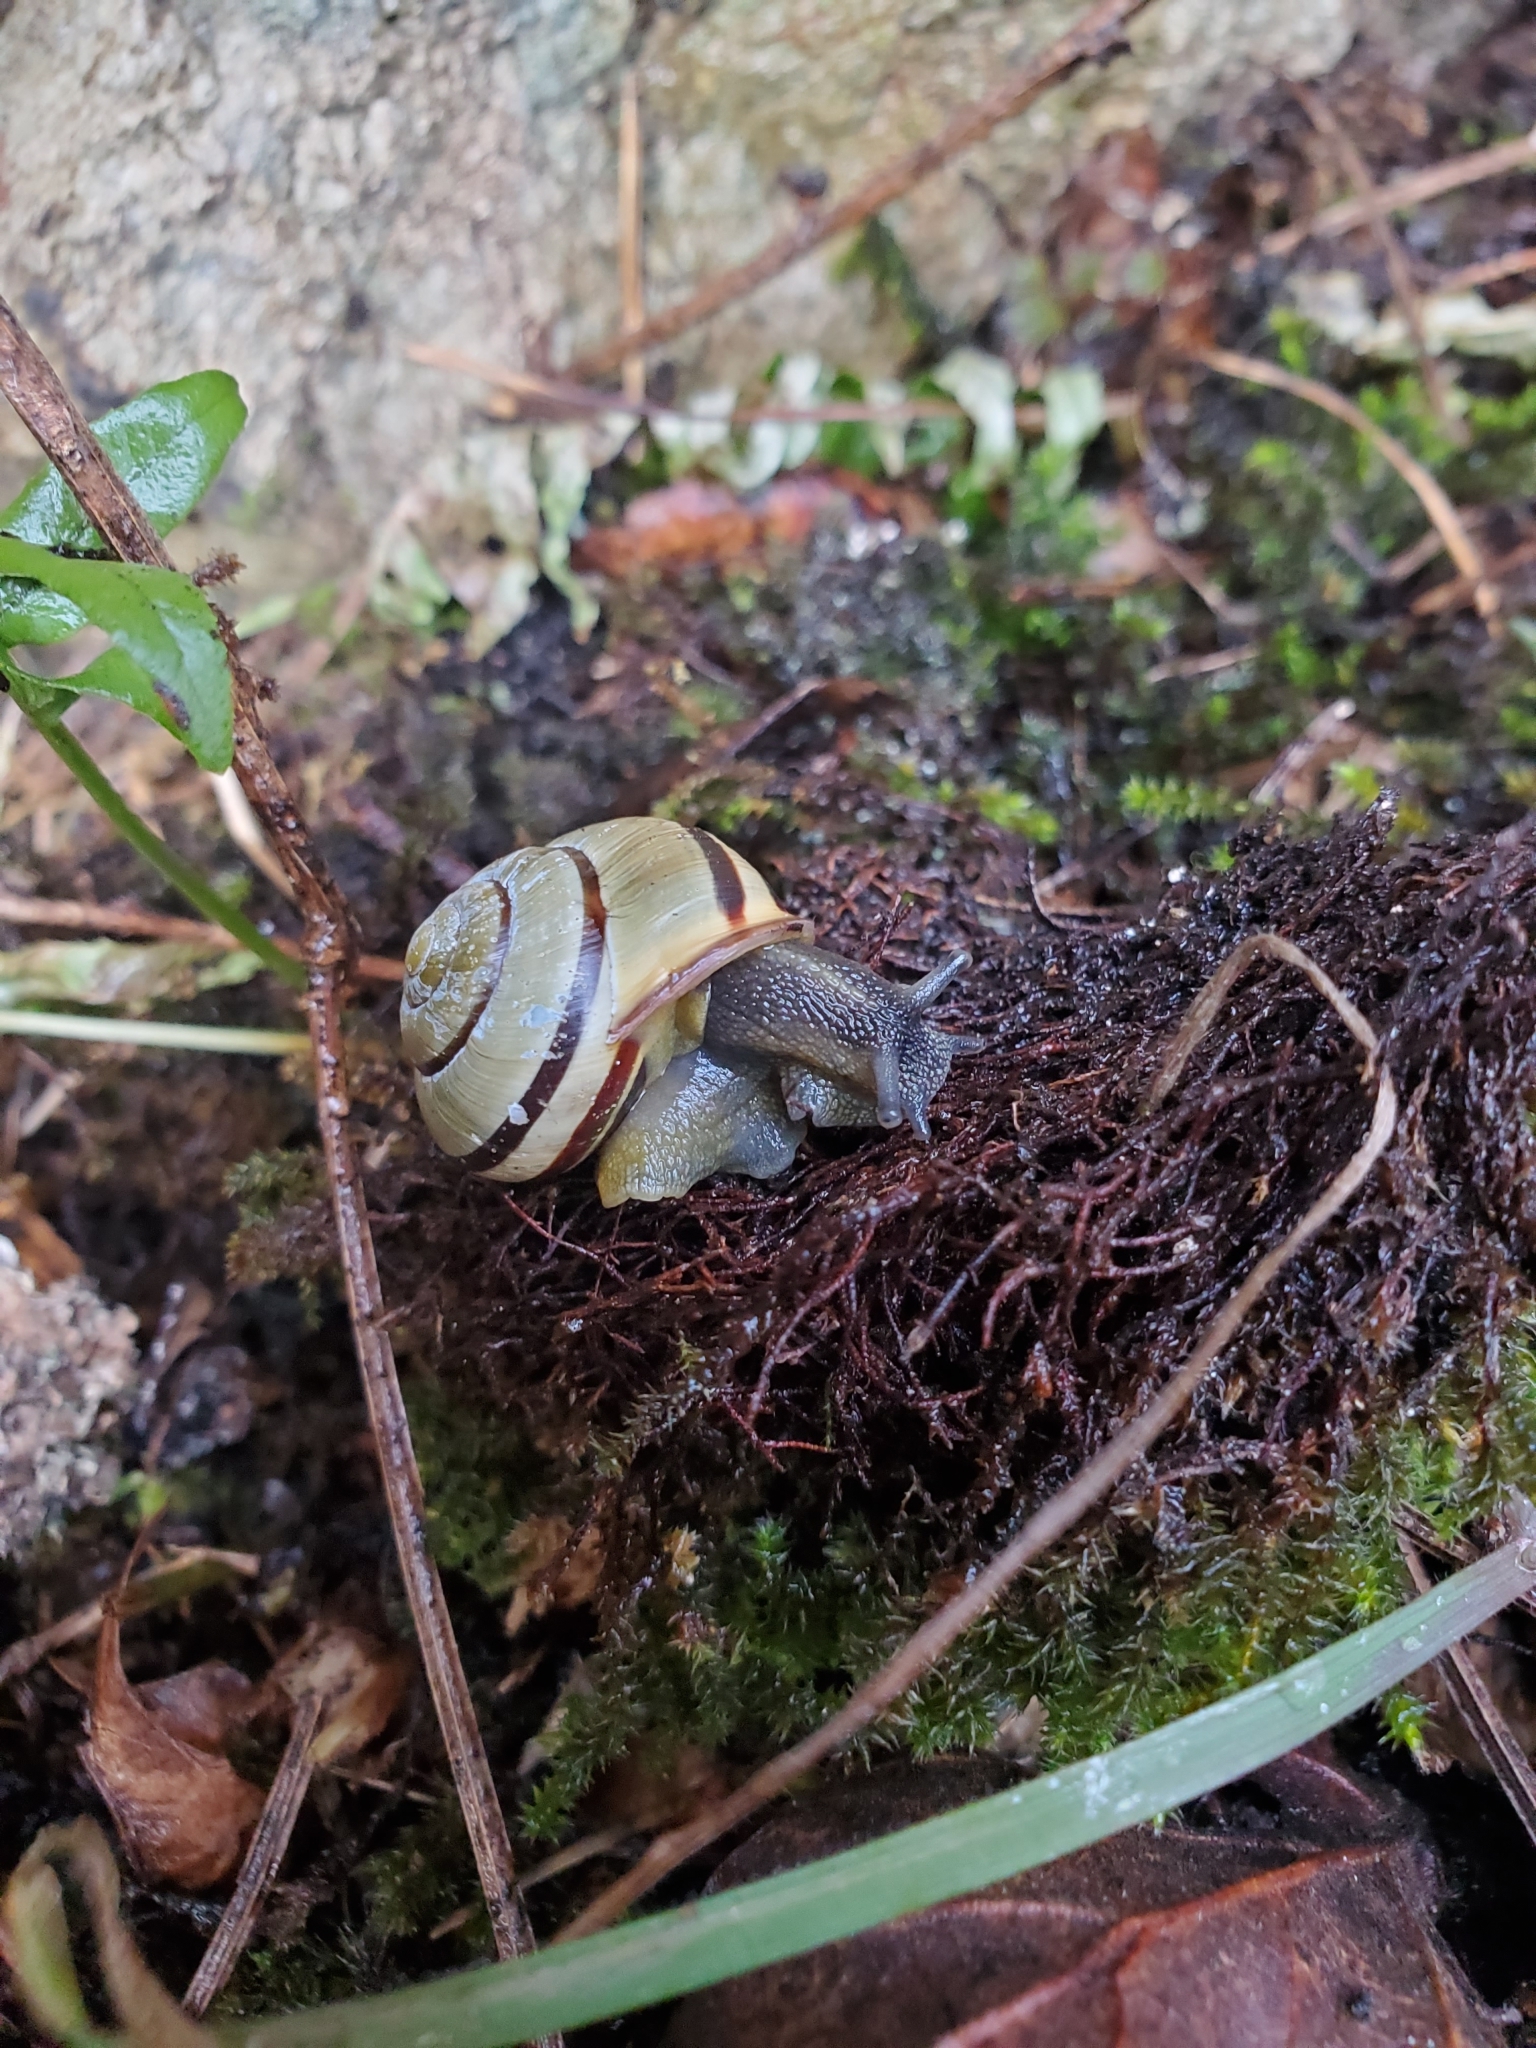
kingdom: Animalia
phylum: Mollusca
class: Gastropoda
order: Stylommatophora
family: Helicidae
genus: Cepaea
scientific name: Cepaea nemoralis
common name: Grovesnail
